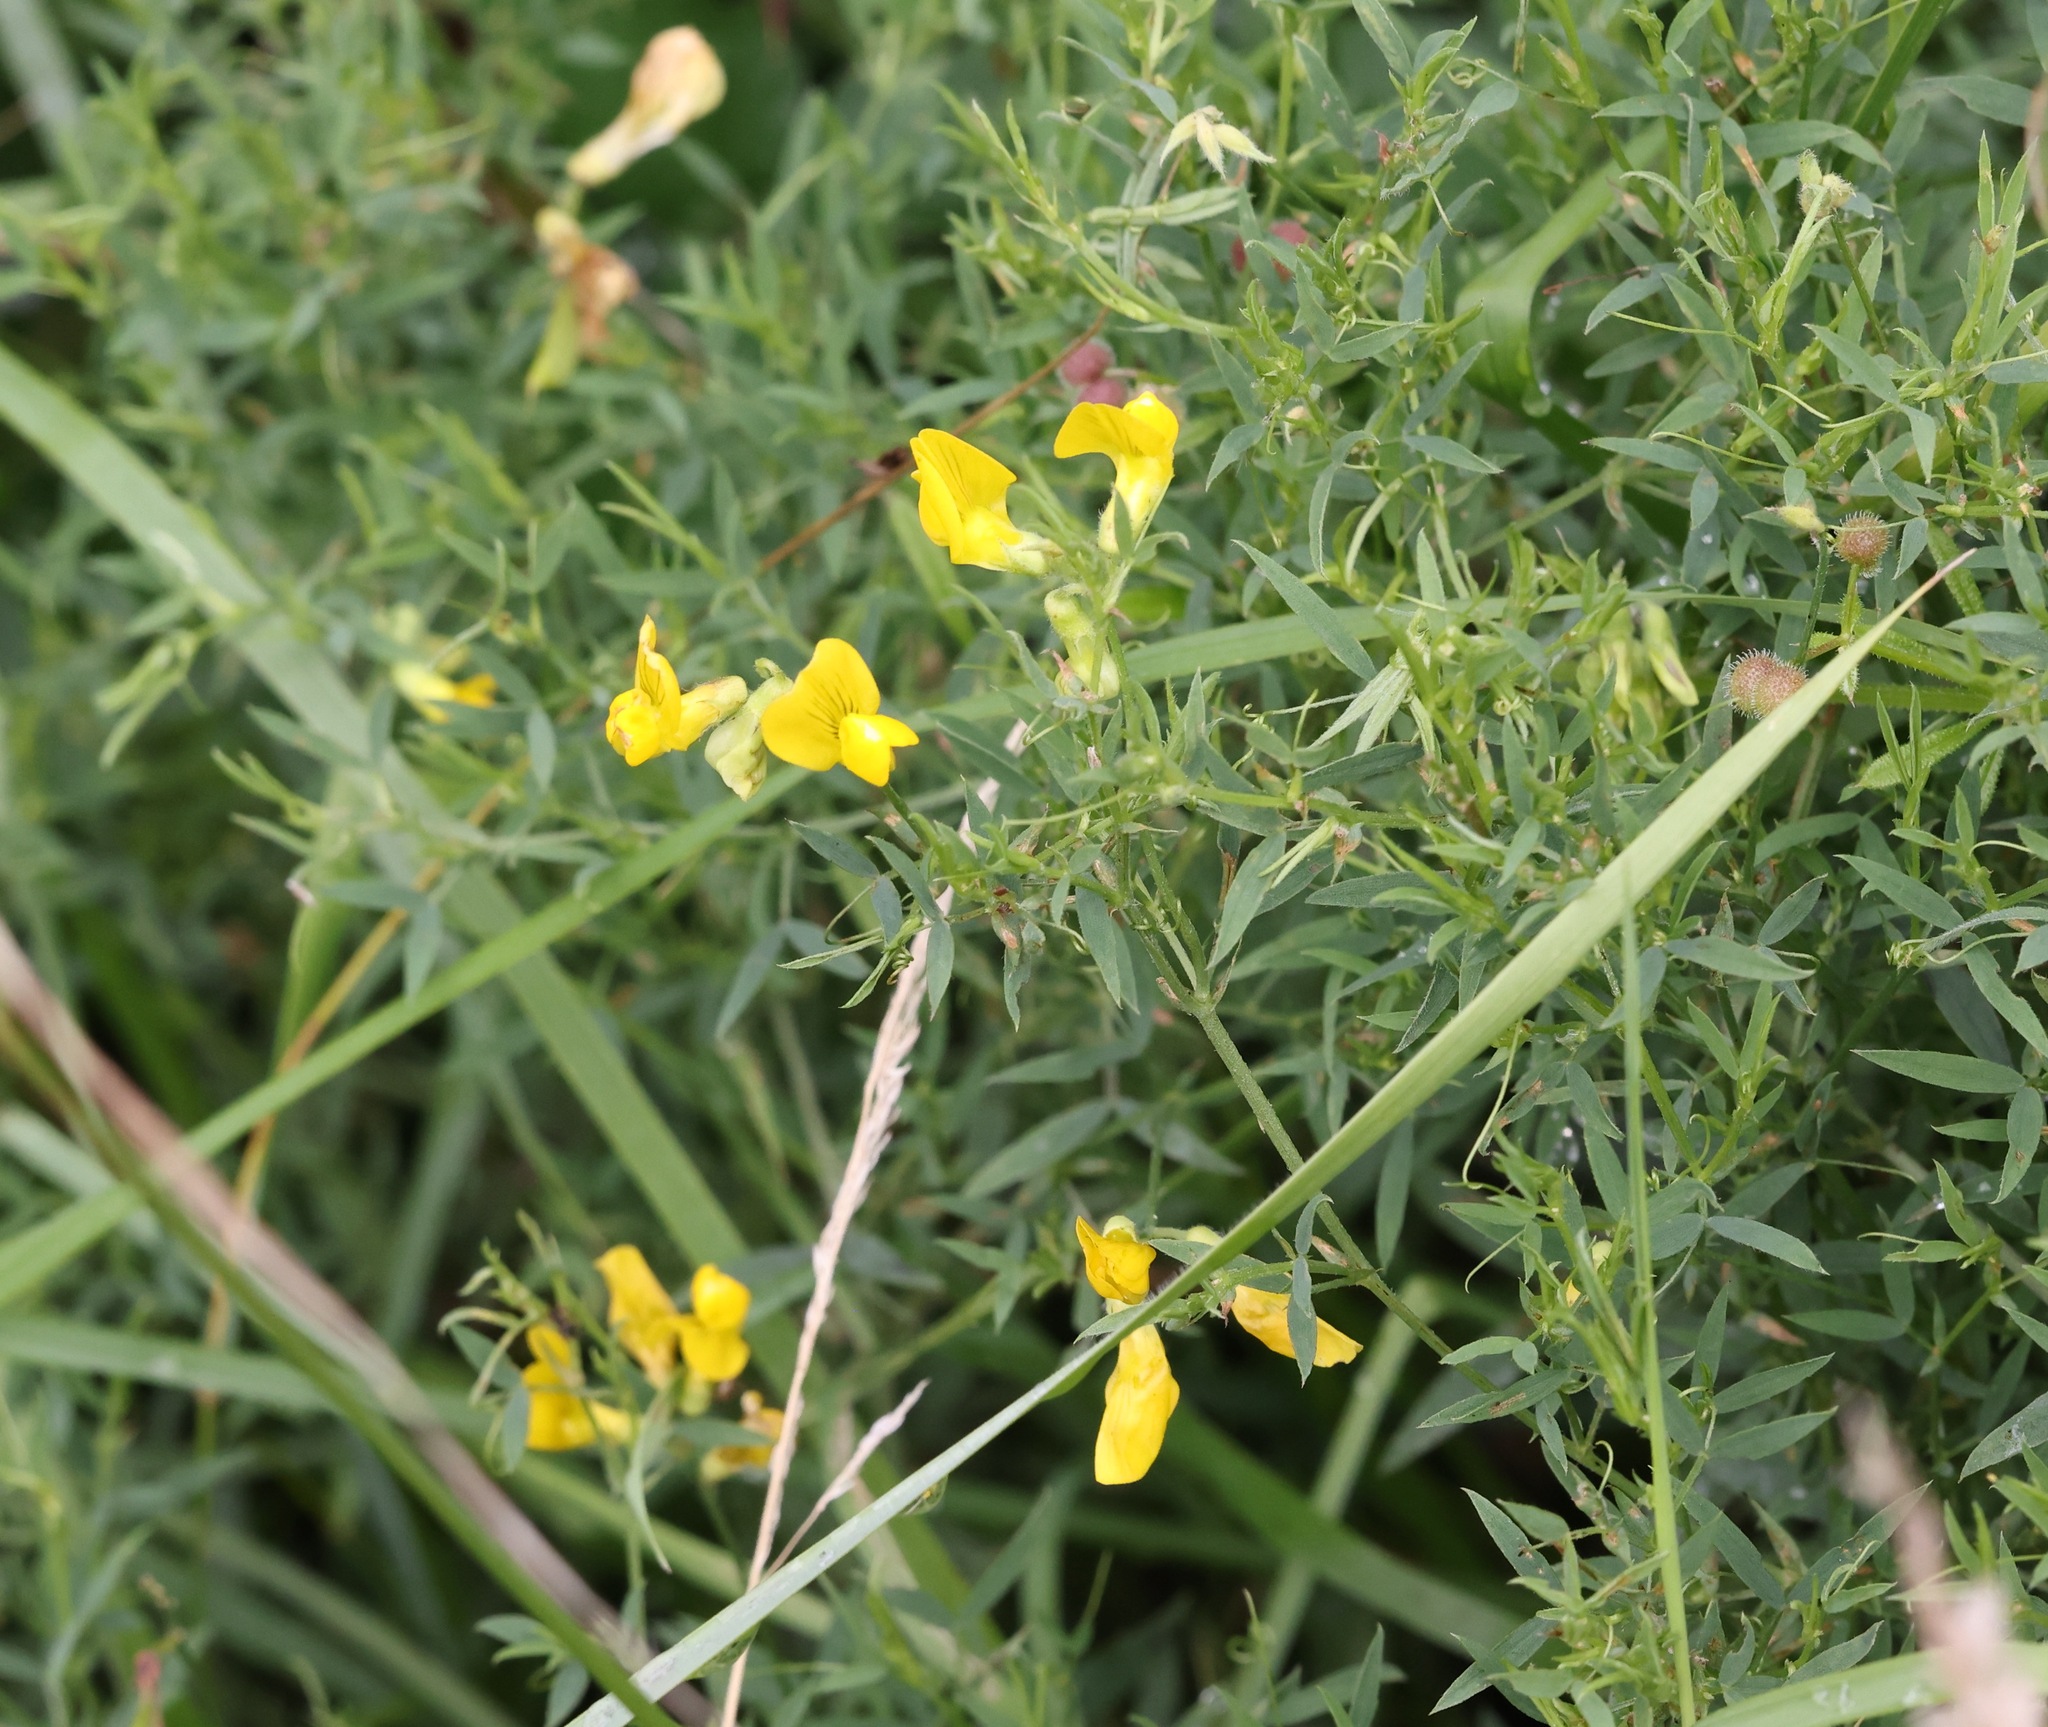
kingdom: Plantae
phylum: Tracheophyta
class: Magnoliopsida
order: Fabales
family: Fabaceae
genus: Lathyrus
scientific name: Lathyrus pratensis
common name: Meadow vetchling
